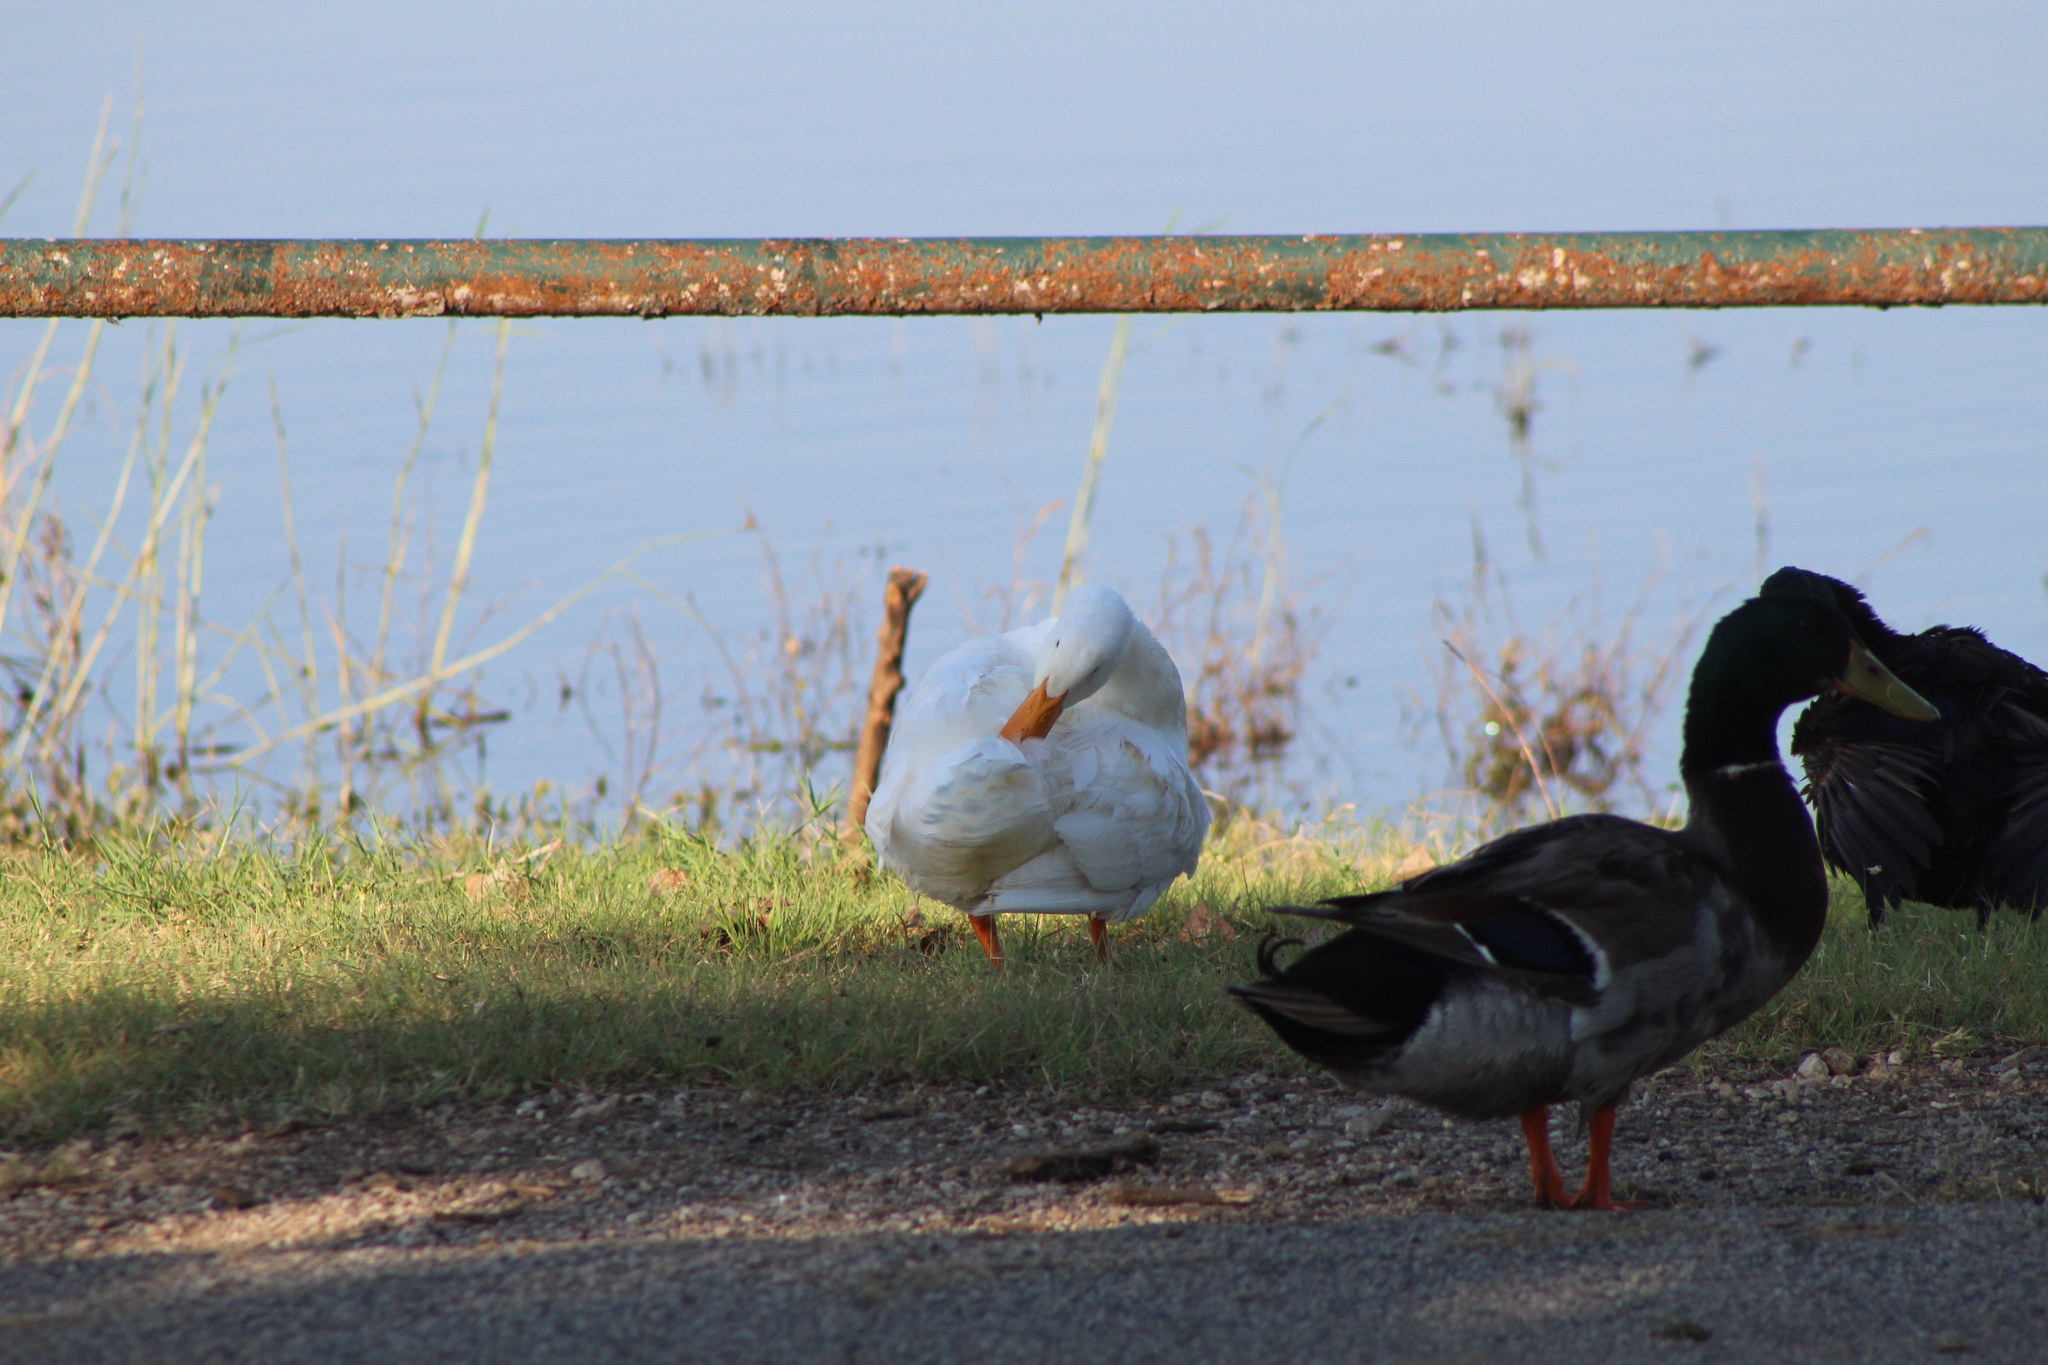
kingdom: Animalia
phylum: Chordata
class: Aves
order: Anseriformes
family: Anatidae
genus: Anas
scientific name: Anas platyrhynchos
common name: Mallard
